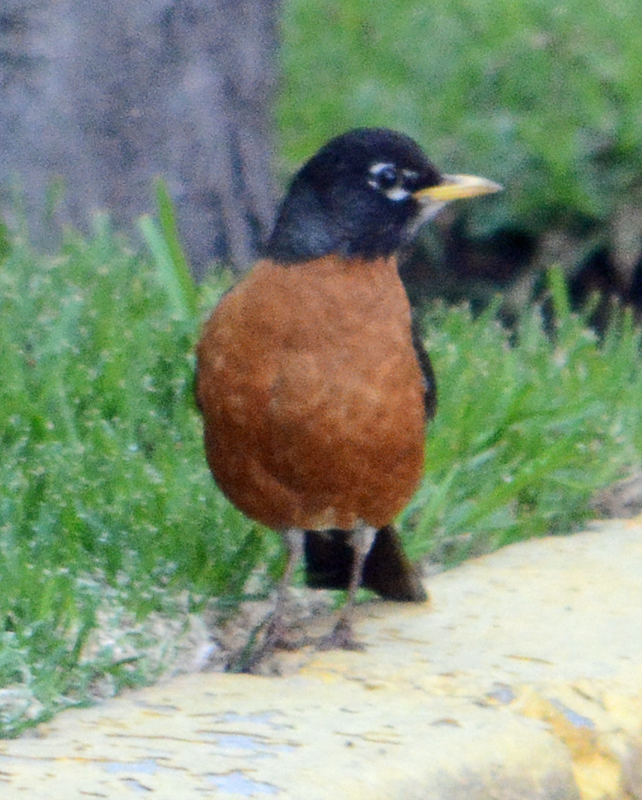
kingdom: Animalia
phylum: Chordata
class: Aves
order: Passeriformes
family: Turdidae
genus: Turdus
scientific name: Turdus migratorius
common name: American robin
